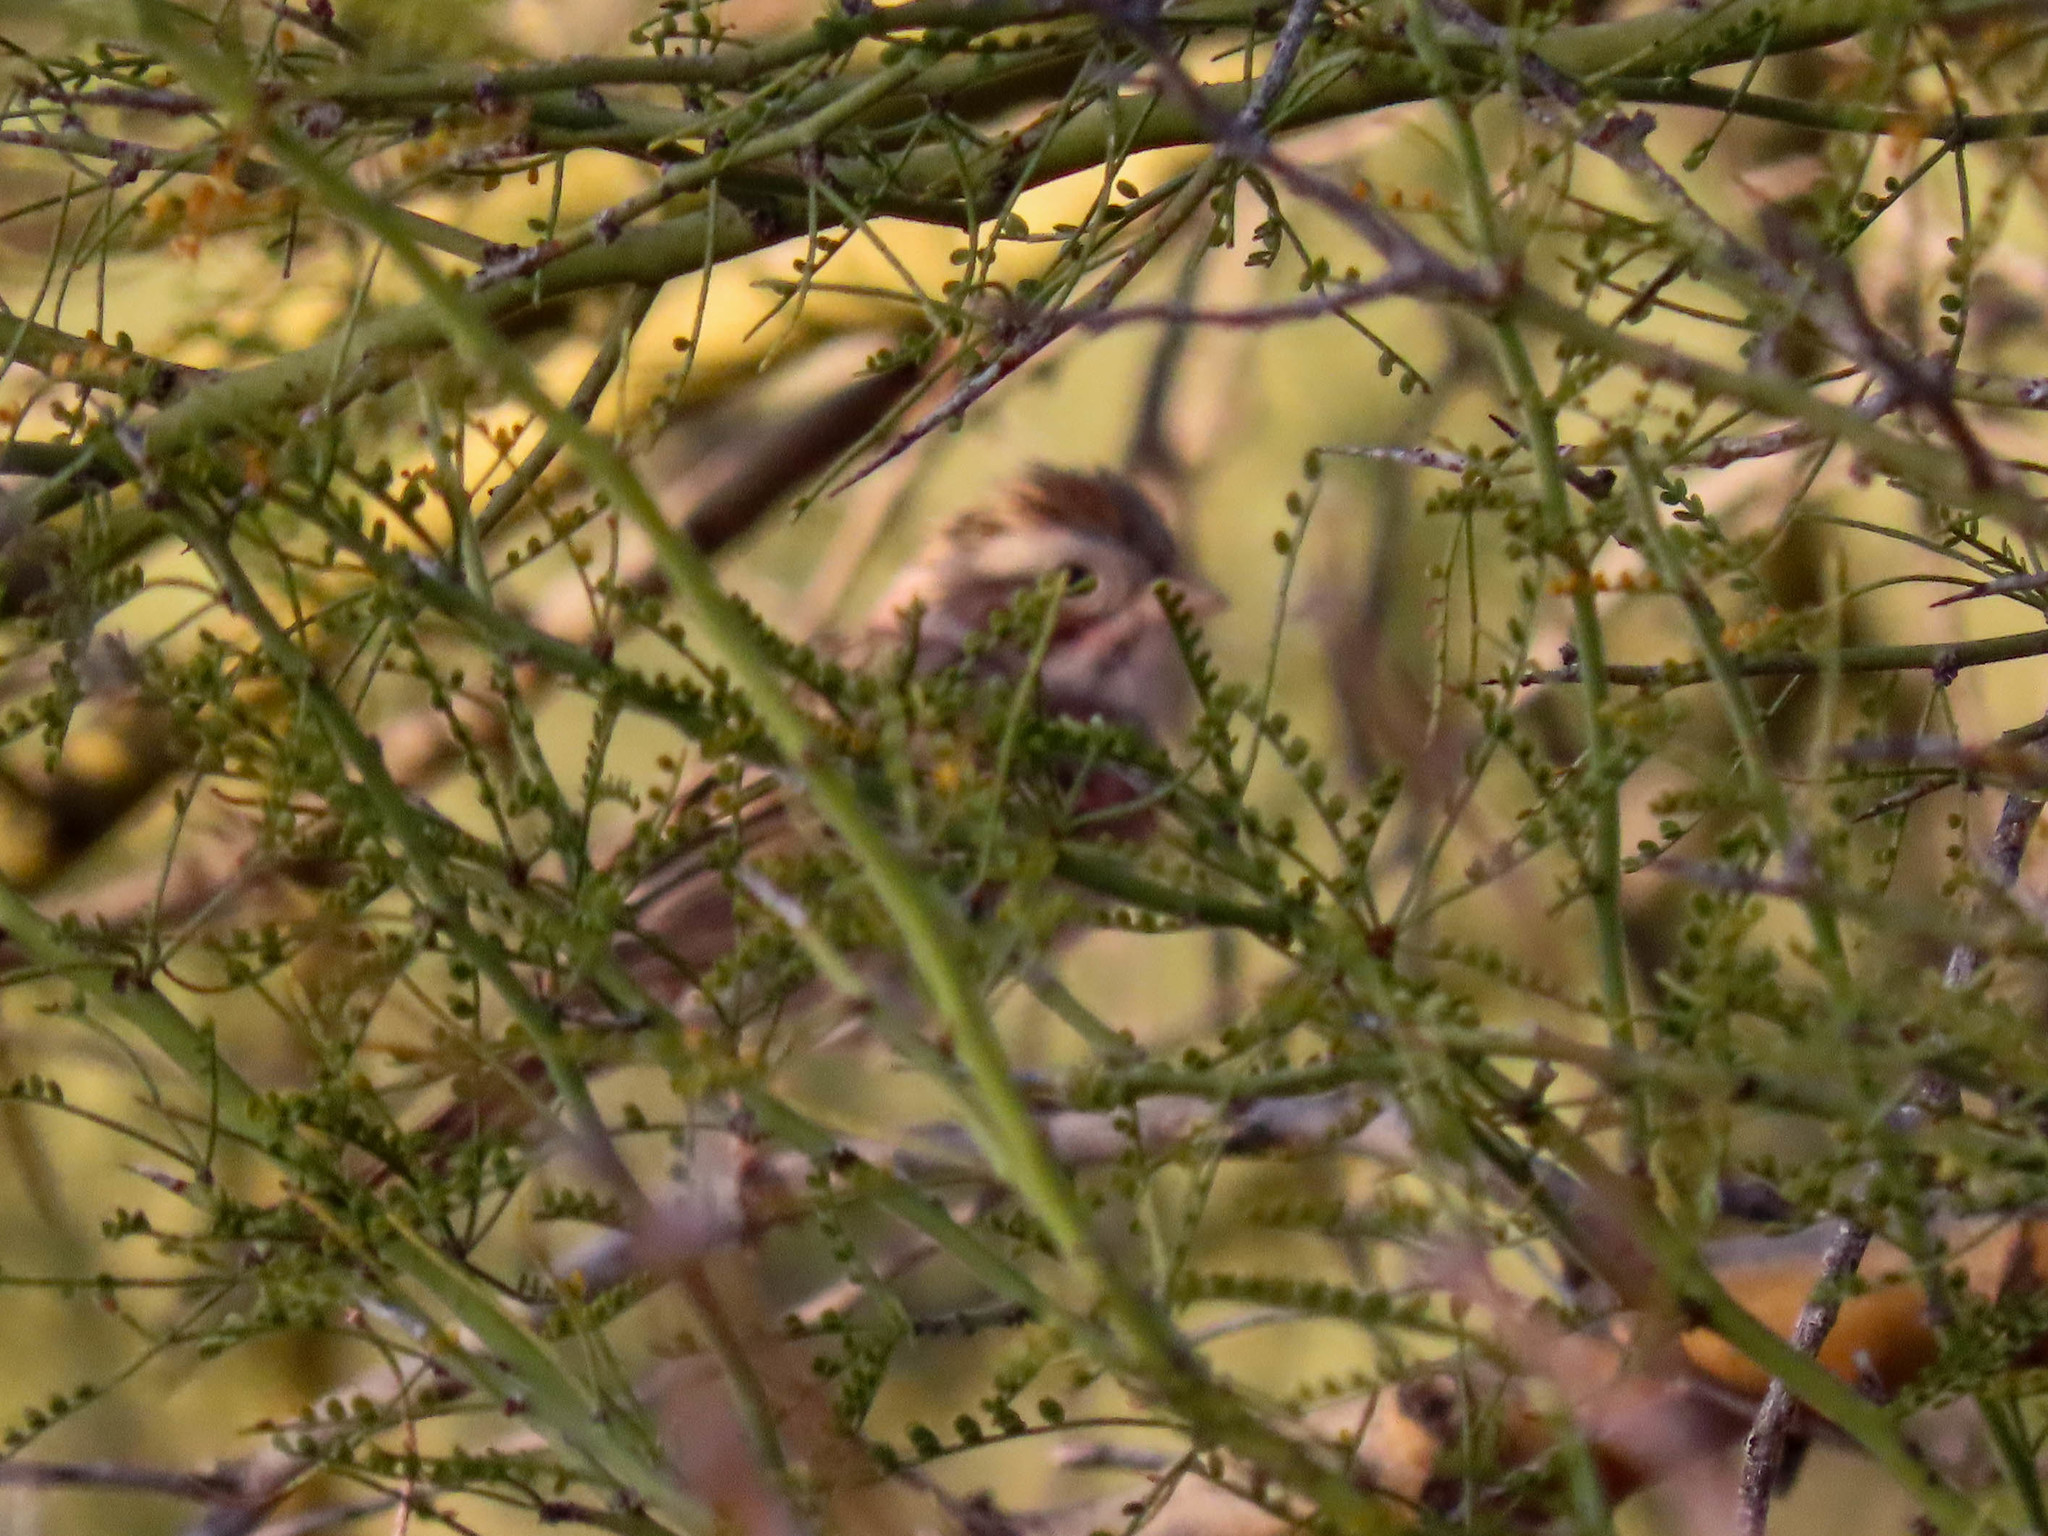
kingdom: Animalia
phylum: Chordata
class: Aves
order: Passeriformes
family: Passerellidae
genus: Spizella
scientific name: Spizella pallida
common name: Clay-colored sparrow
